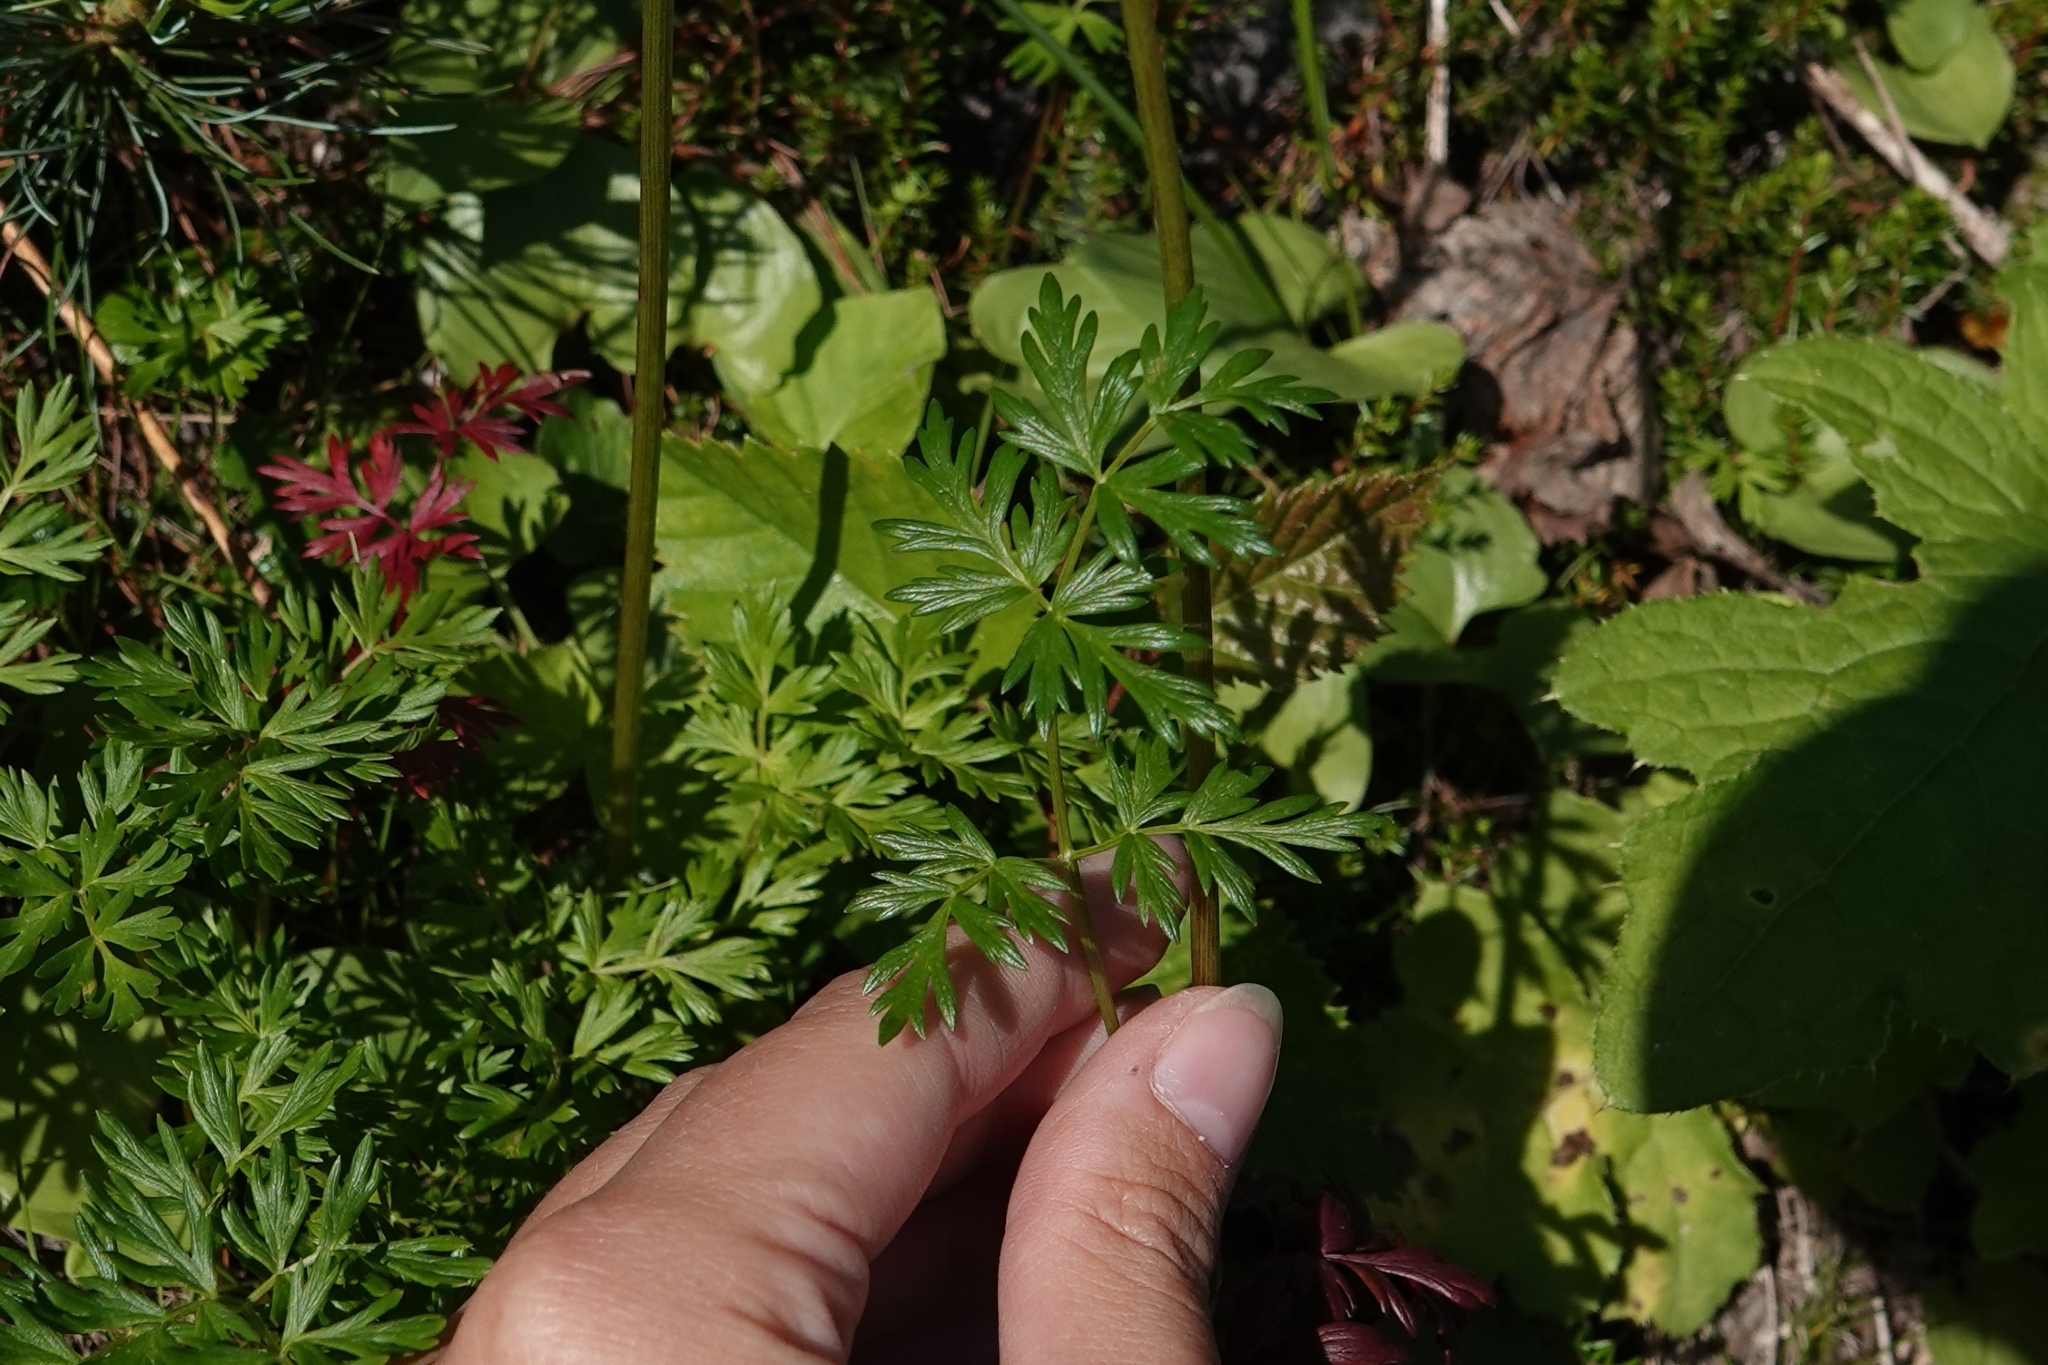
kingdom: Plantae
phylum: Tracheophyta
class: Magnoliopsida
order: Apiales
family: Apiaceae
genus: Tilingia
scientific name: Tilingia ajanensis
